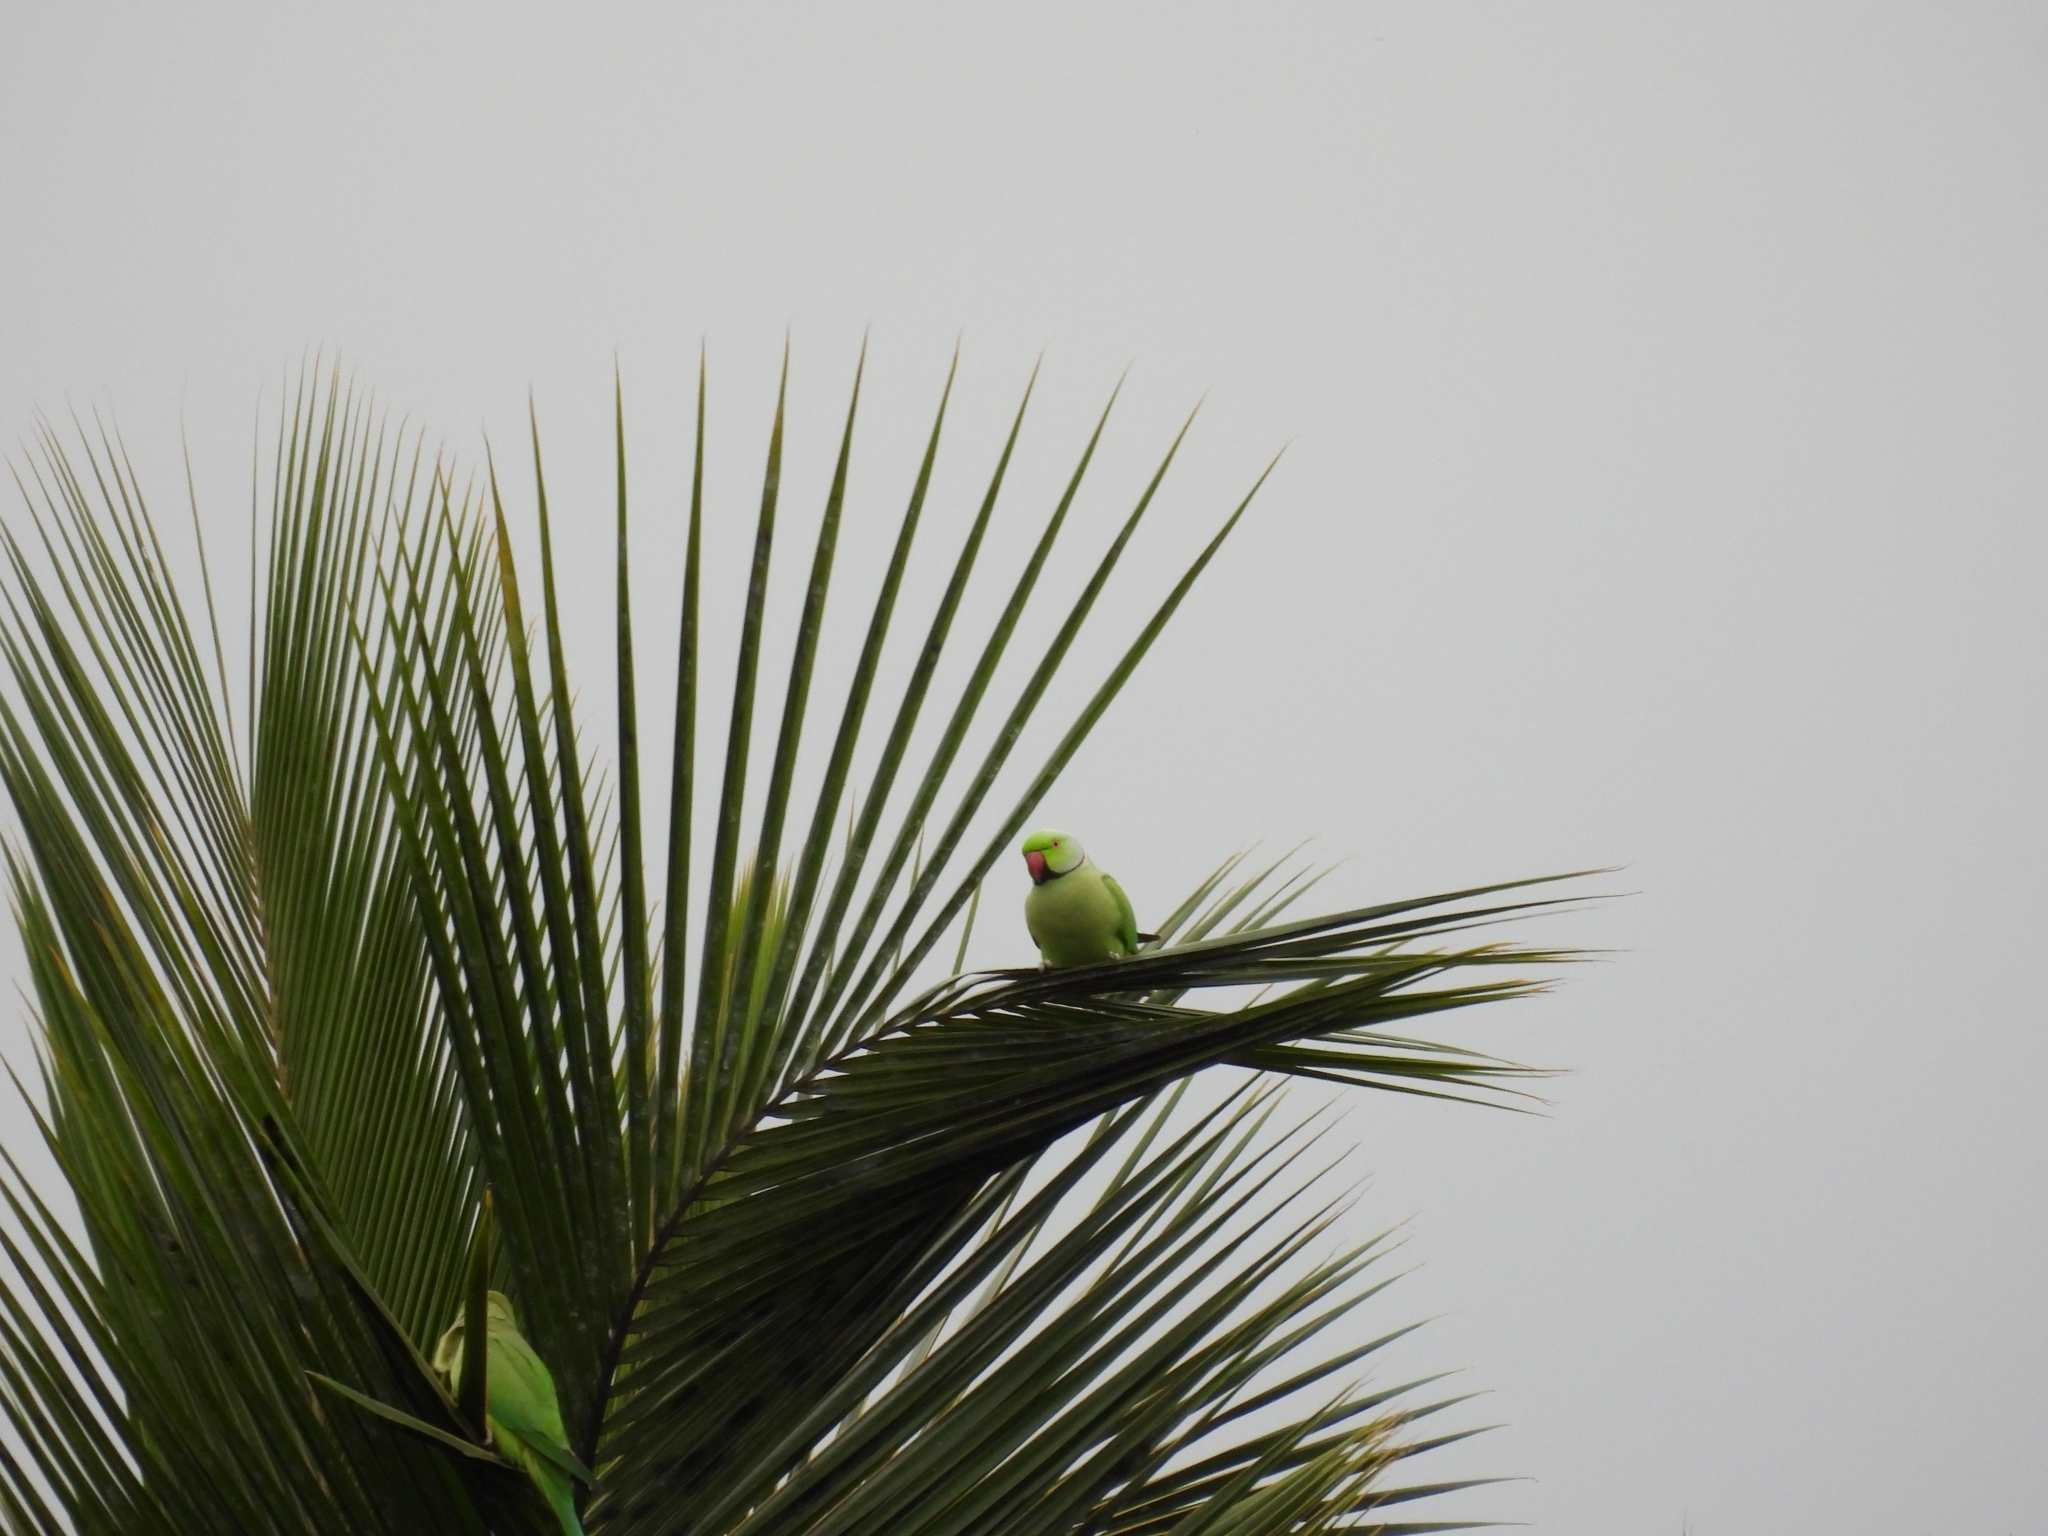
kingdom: Animalia
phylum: Chordata
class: Aves
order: Psittaciformes
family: Psittacidae
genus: Psittacula
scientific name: Psittacula krameri
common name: Rose-ringed parakeet
